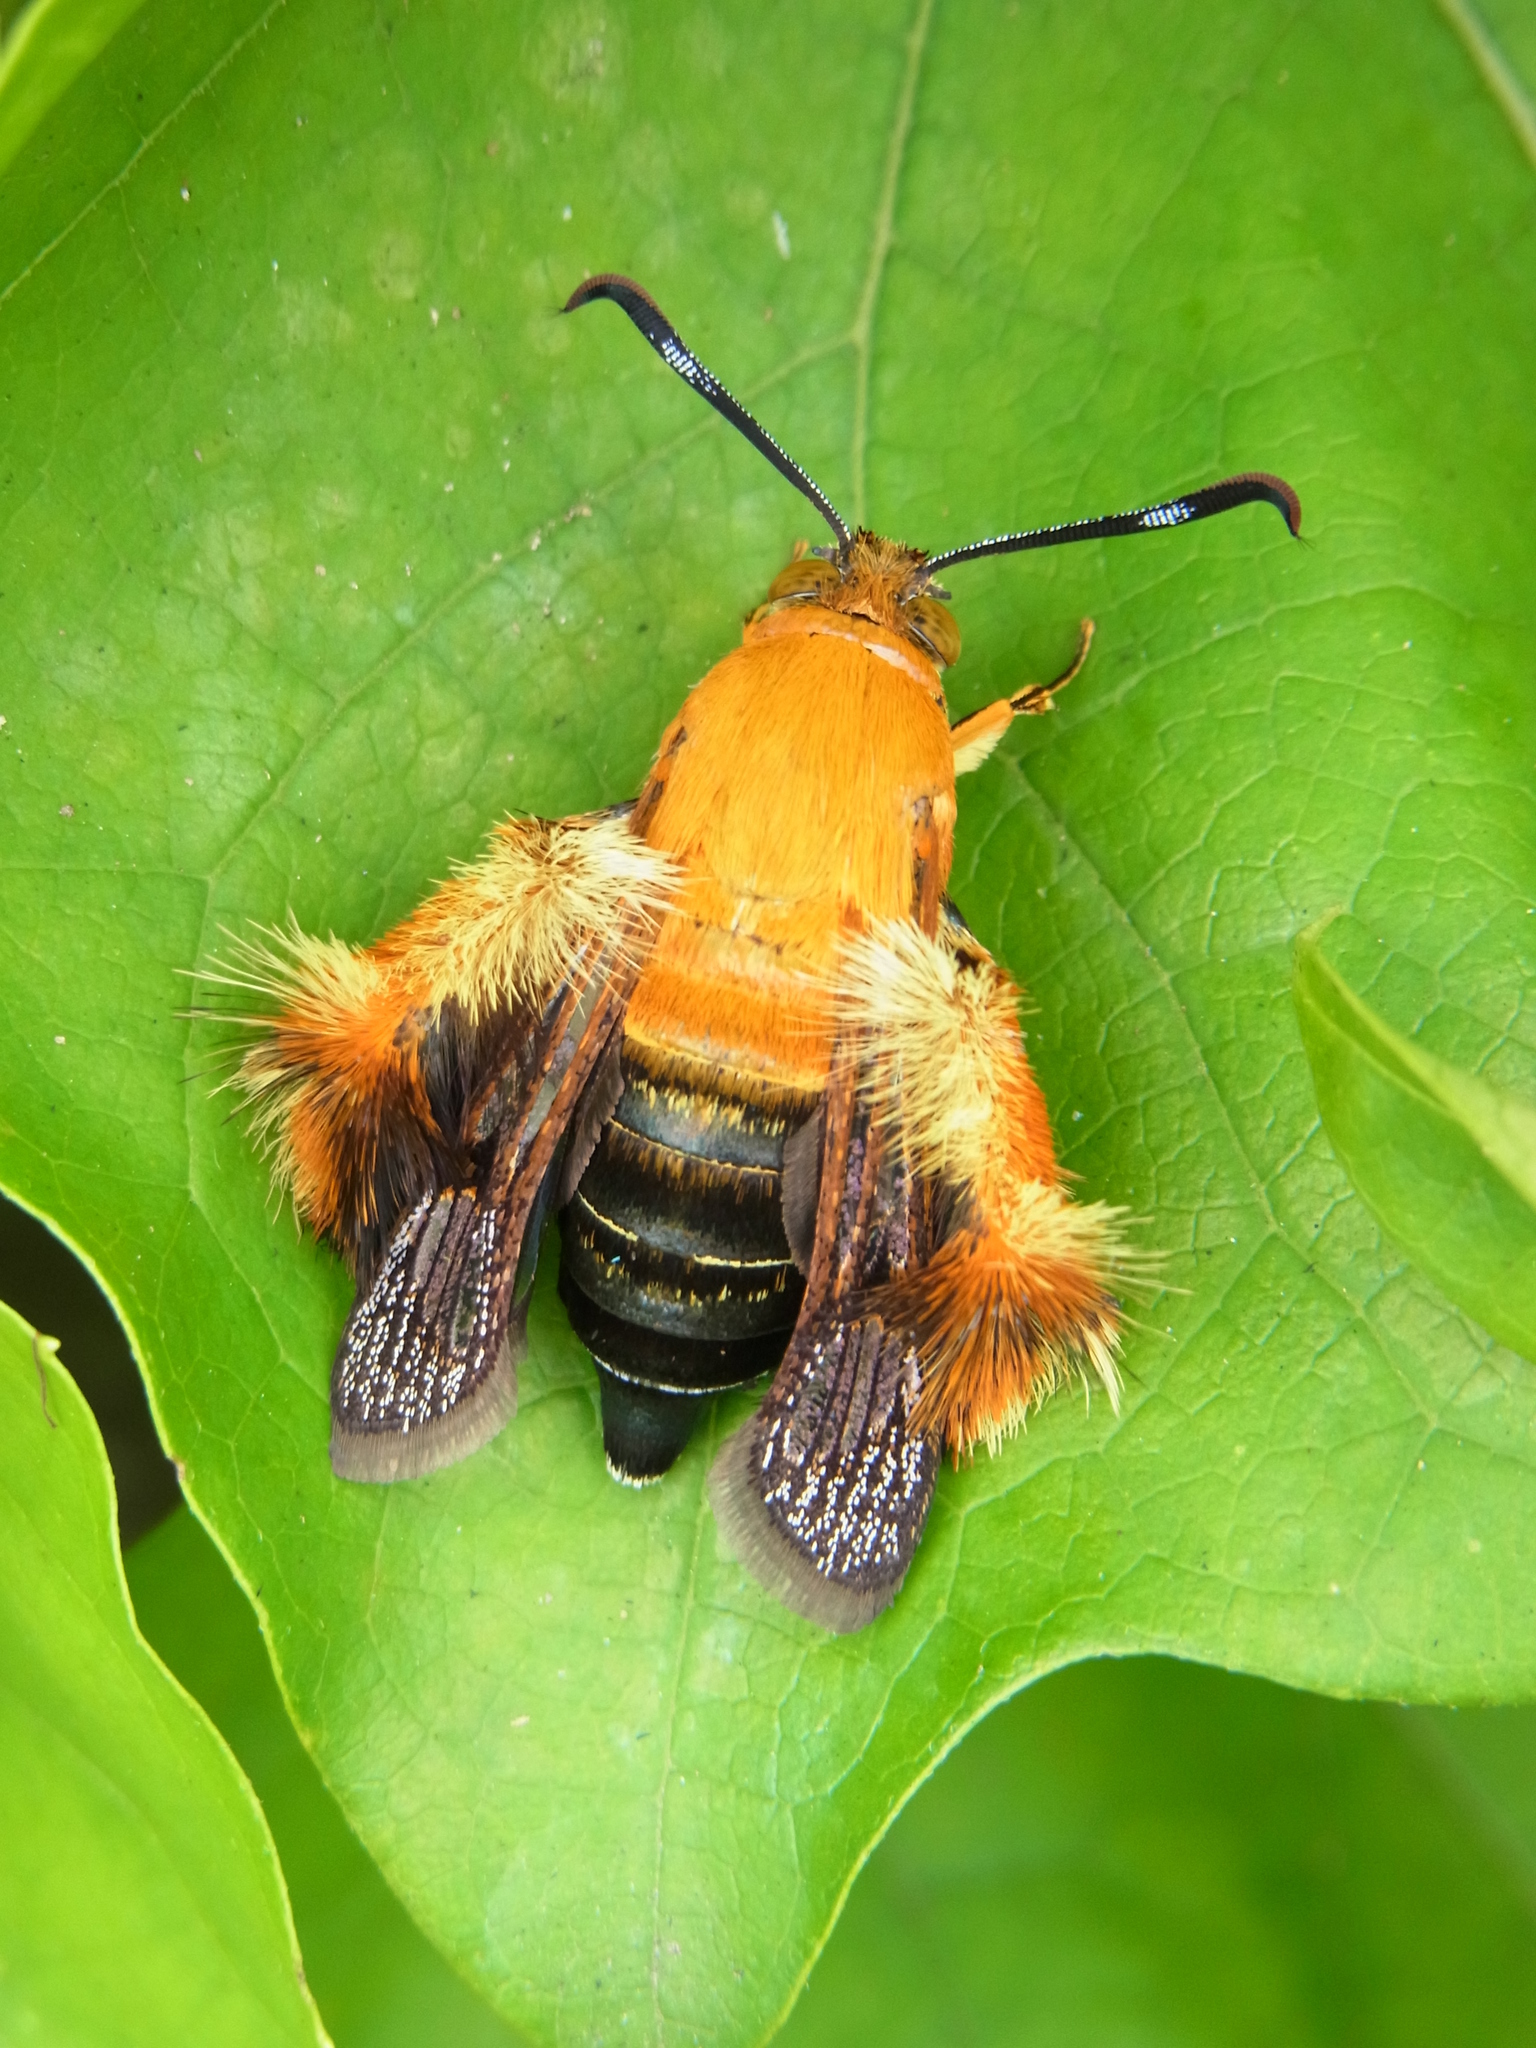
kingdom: Animalia
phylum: Arthropoda
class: Insecta
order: Lepidoptera
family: Sesiidae
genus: Melittia
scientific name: Melittia sangaica
